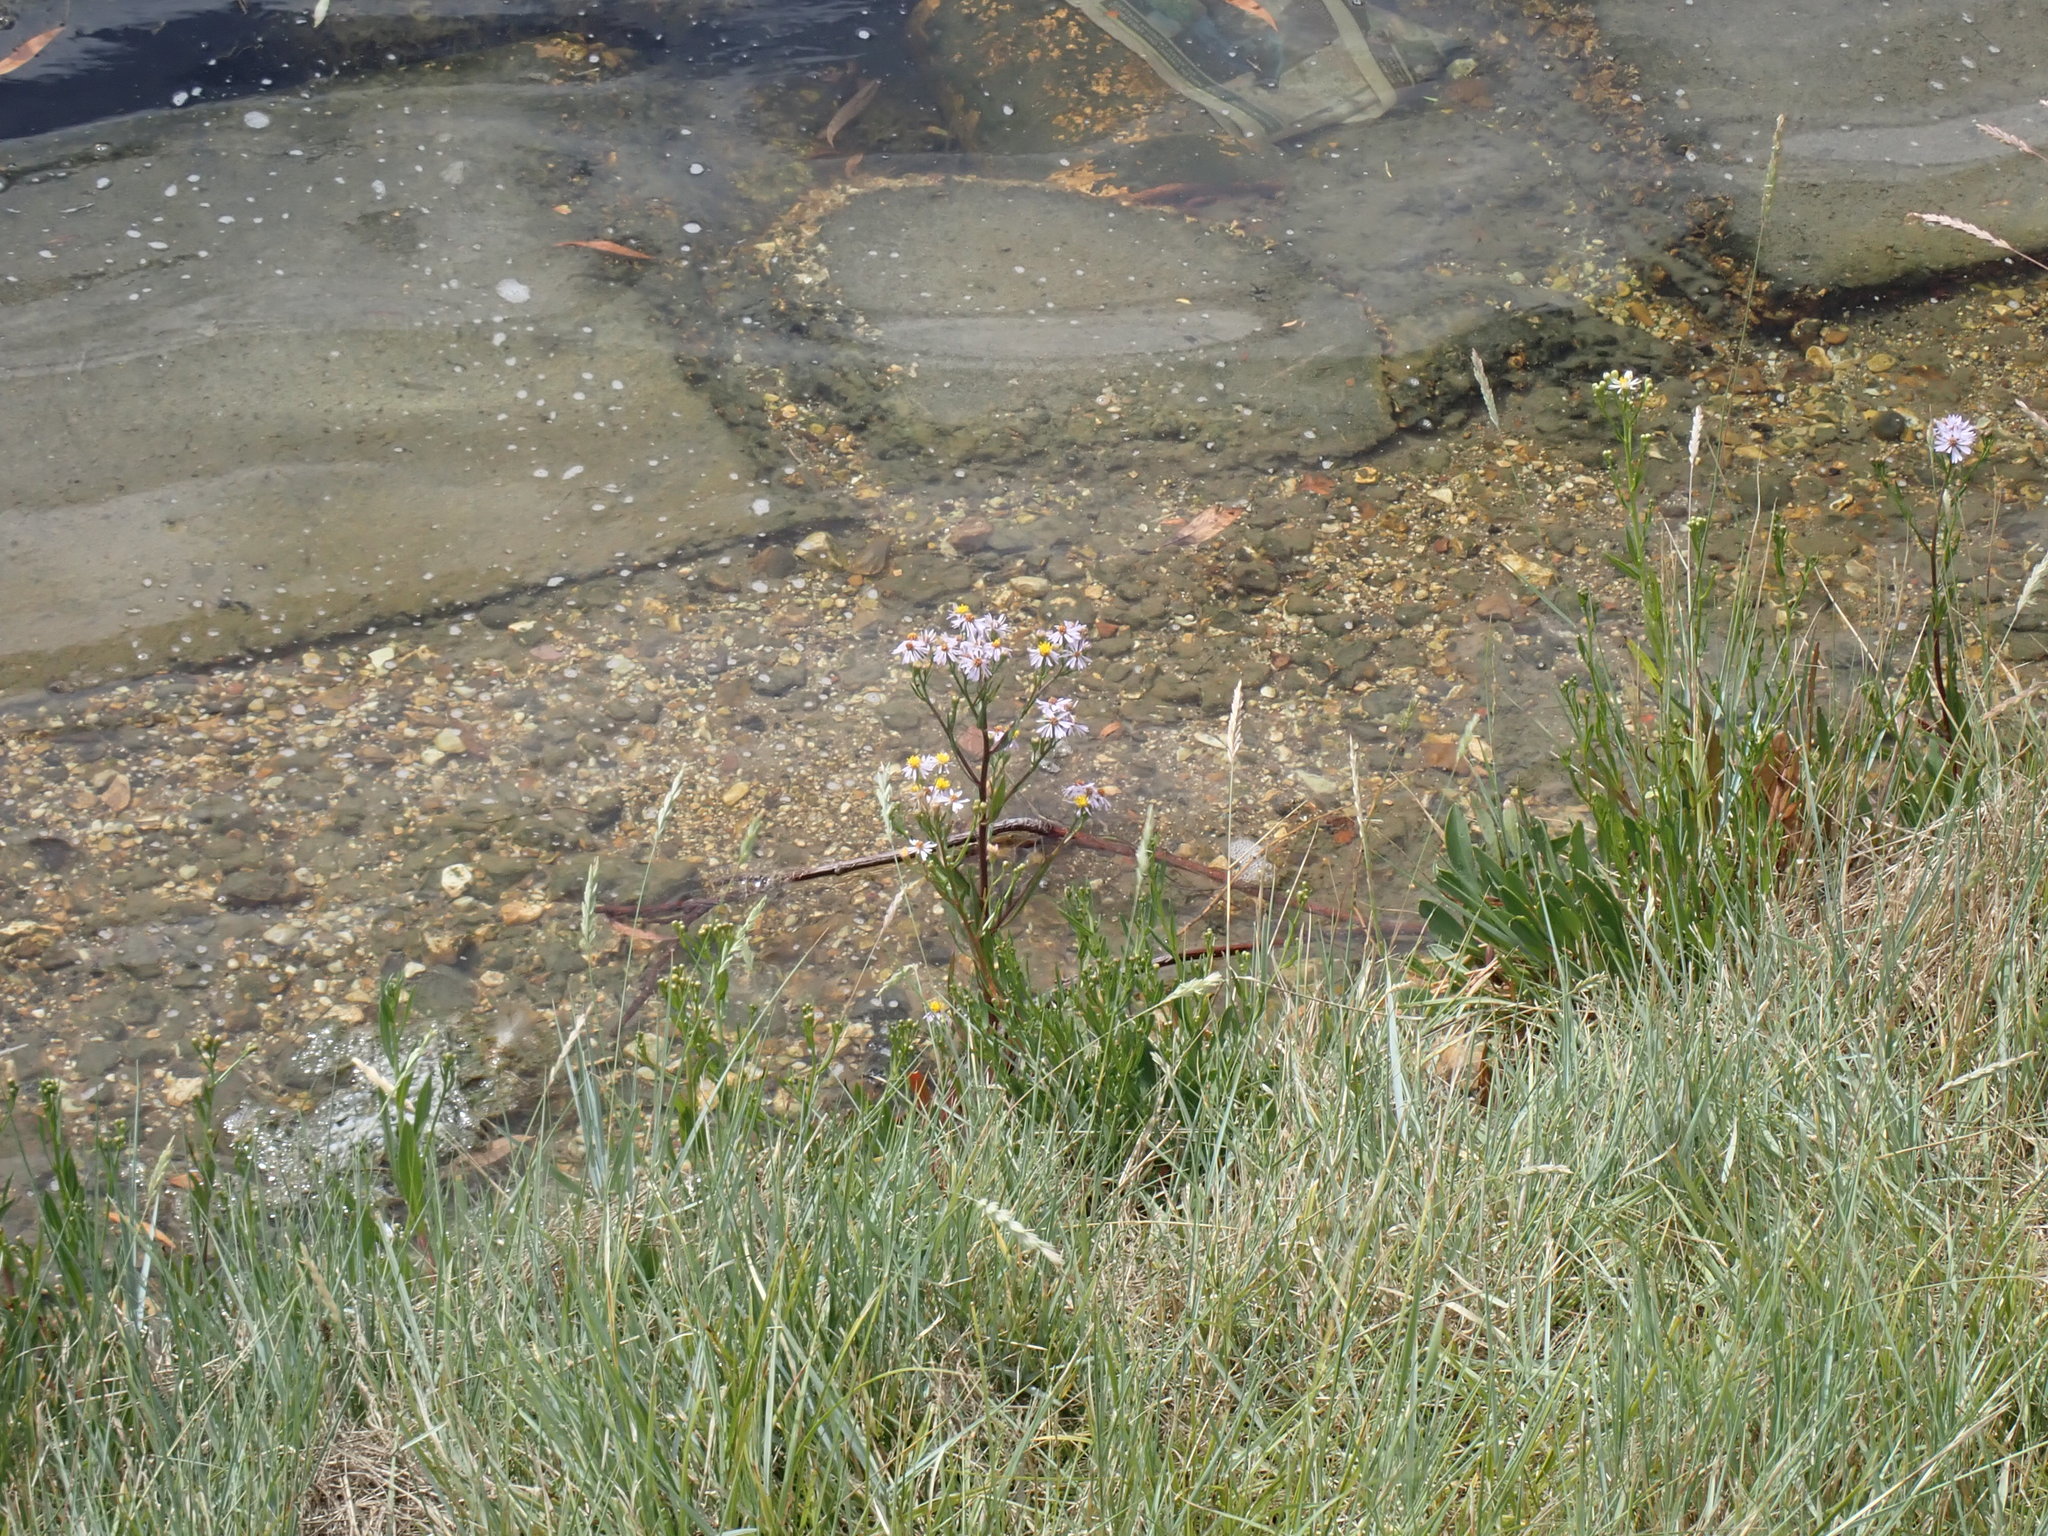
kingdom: Plantae
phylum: Tracheophyta
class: Magnoliopsida
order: Asterales
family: Asteraceae
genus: Tripolium
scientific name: Tripolium pannonicum
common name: Sea aster
